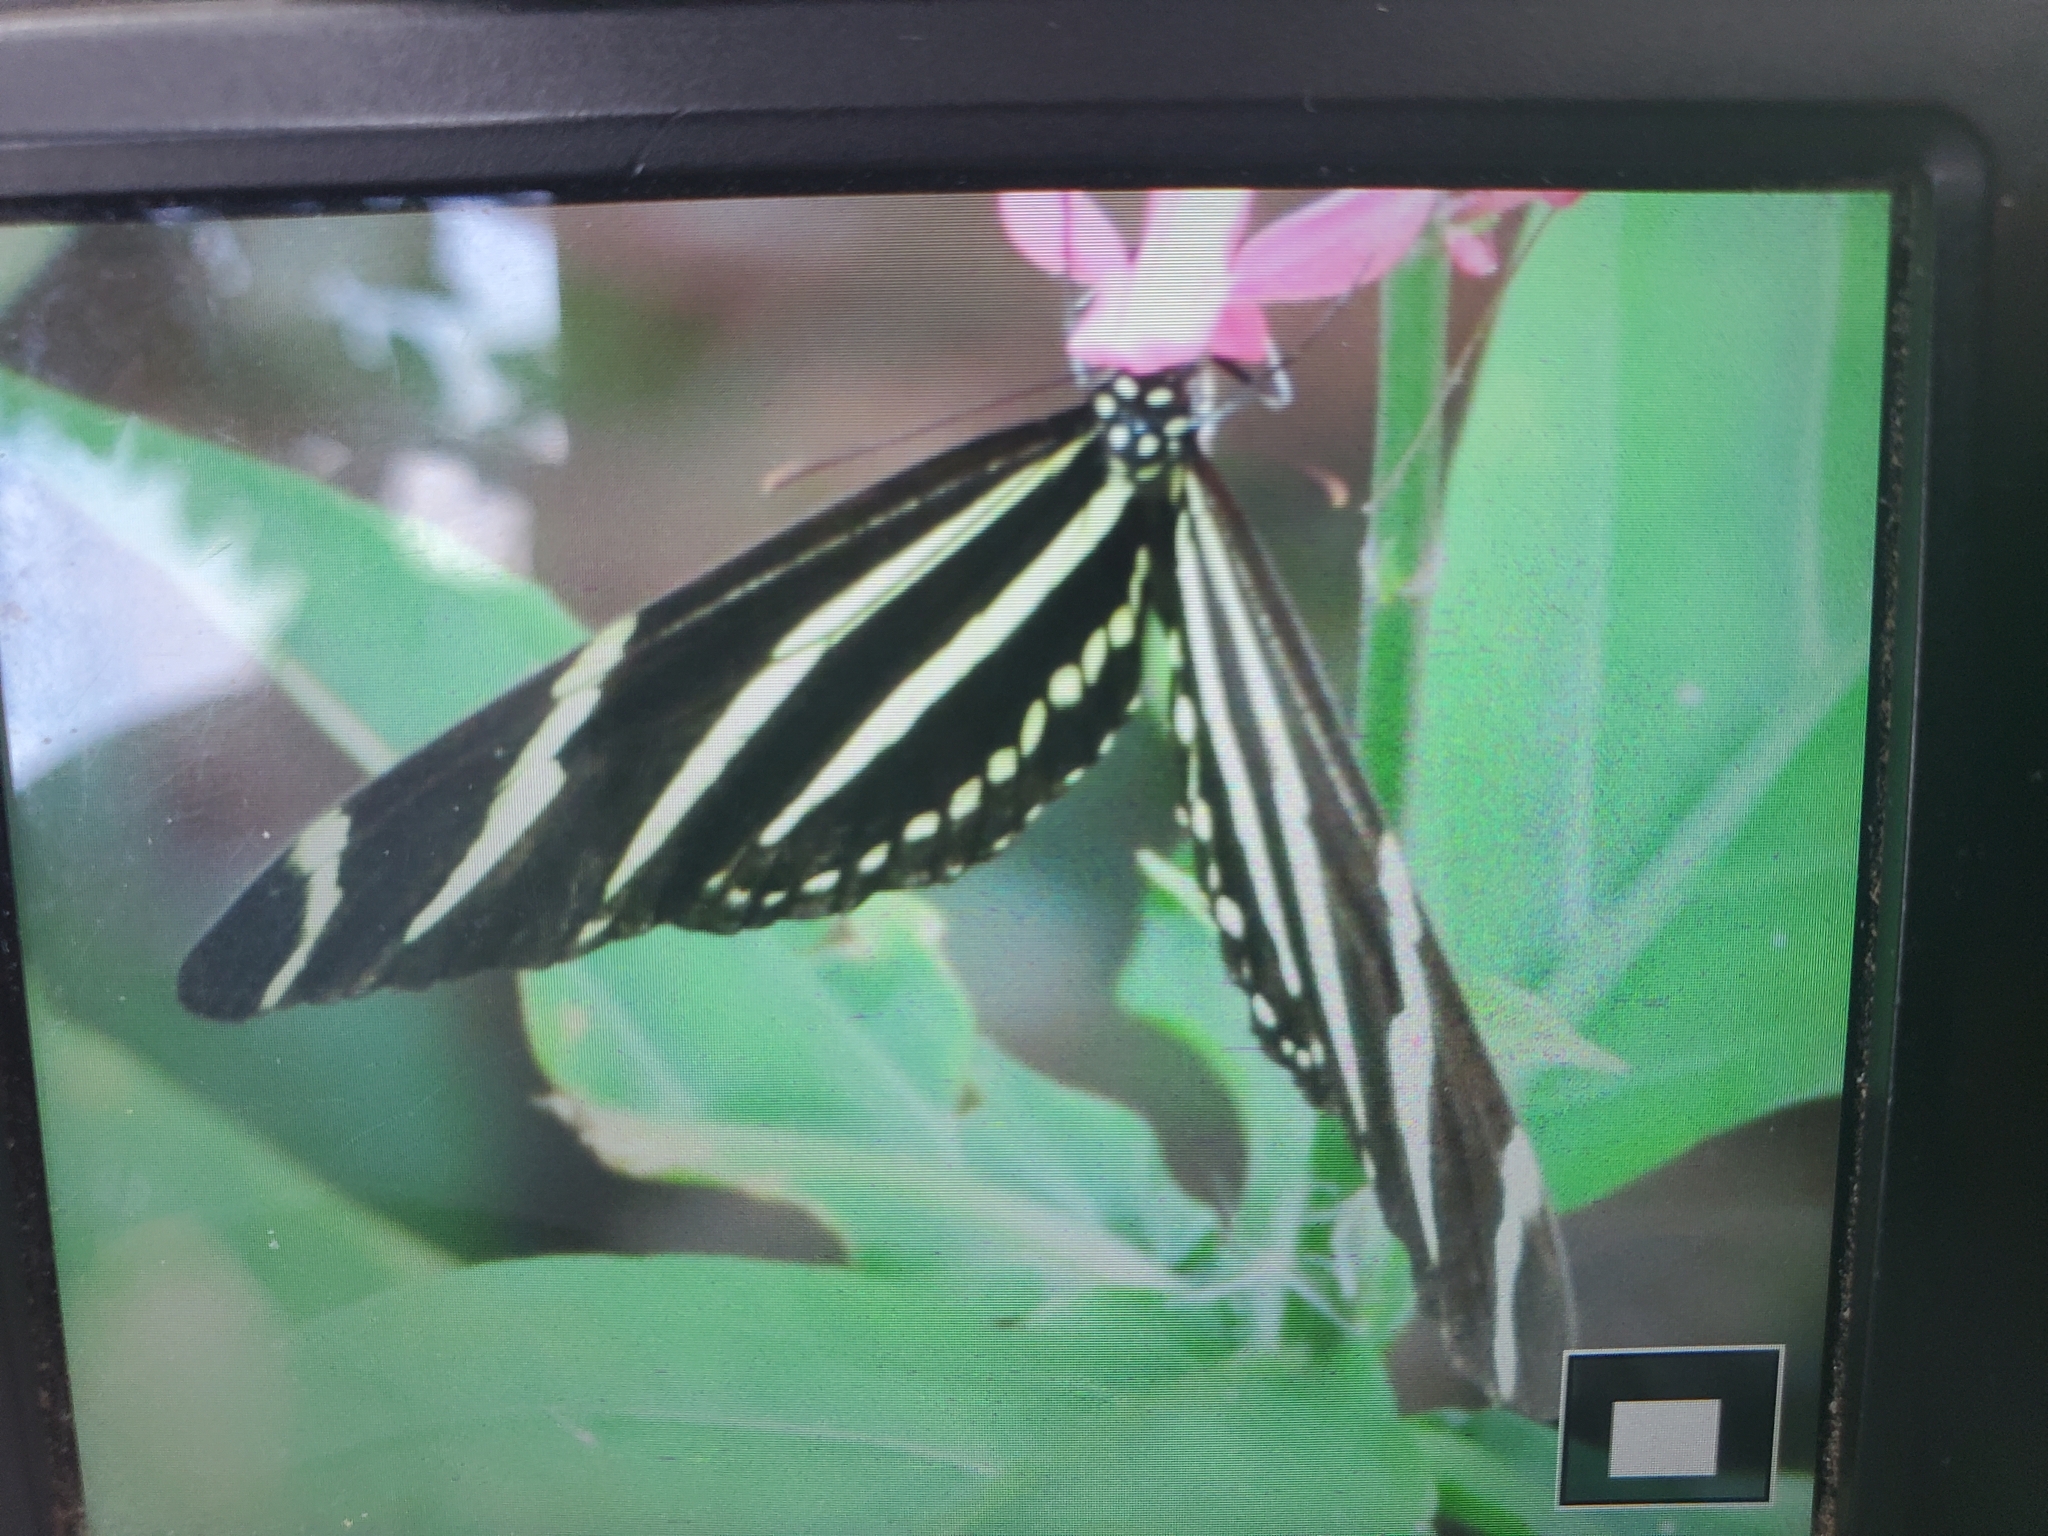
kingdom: Animalia
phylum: Arthropoda
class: Insecta
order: Lepidoptera
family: Nymphalidae
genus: Heliconius
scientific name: Heliconius charithonia
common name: Zebra long wing
